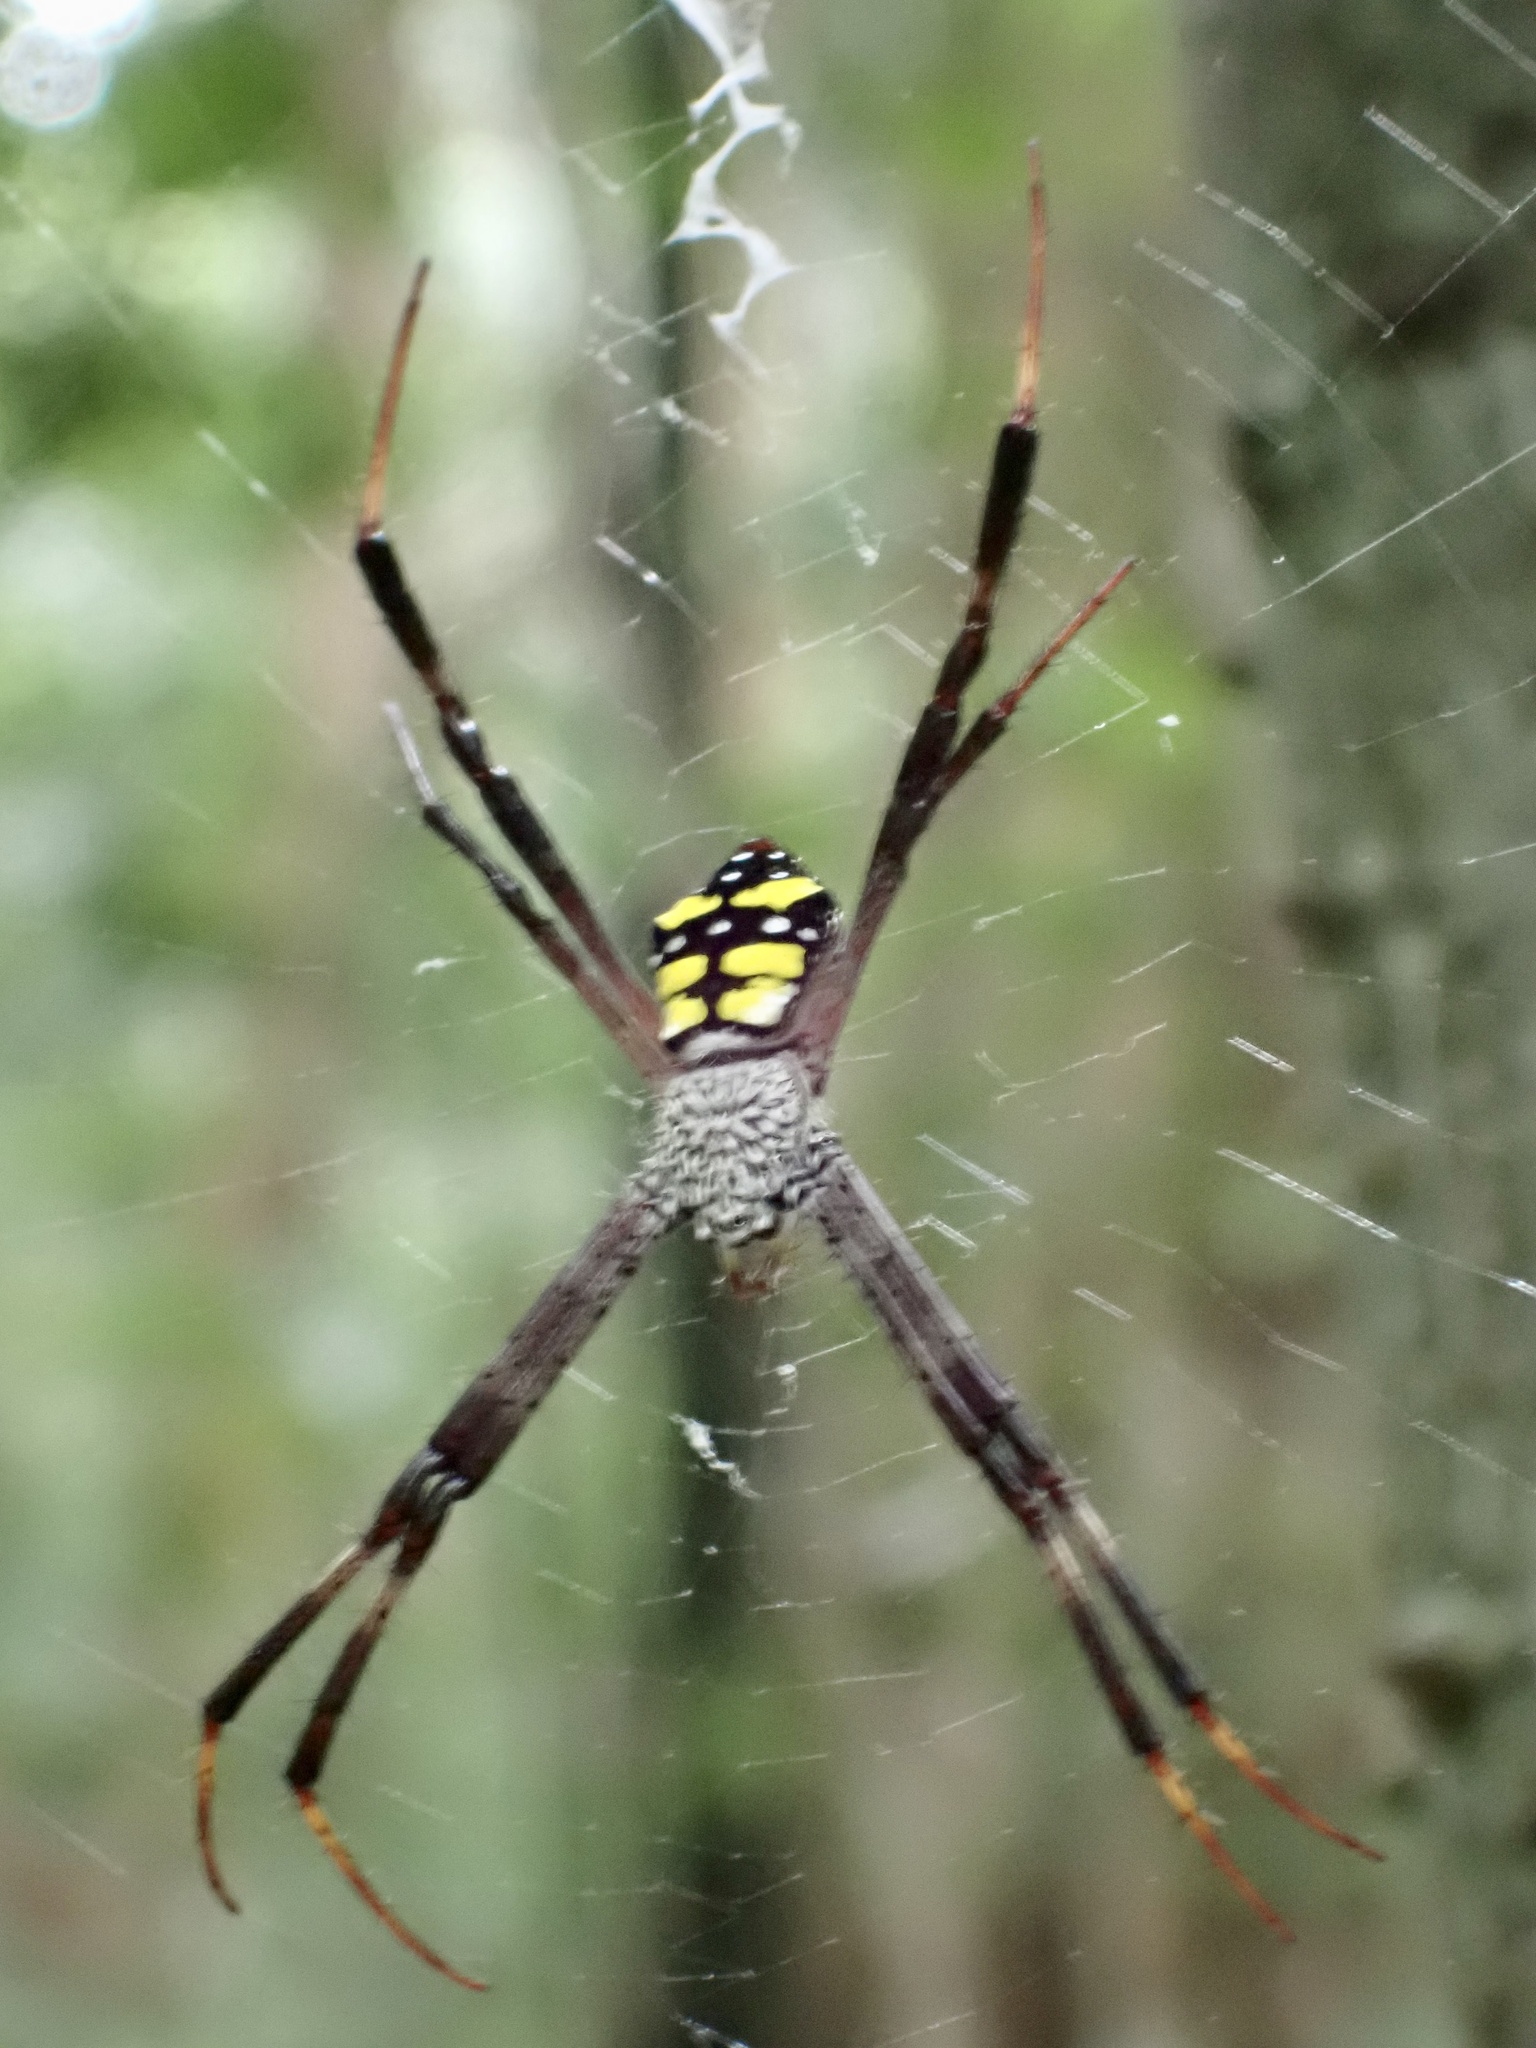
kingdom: Animalia
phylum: Arthropoda
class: Arachnida
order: Araneae
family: Araneidae
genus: Argiope
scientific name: Argiope halmaherensis
